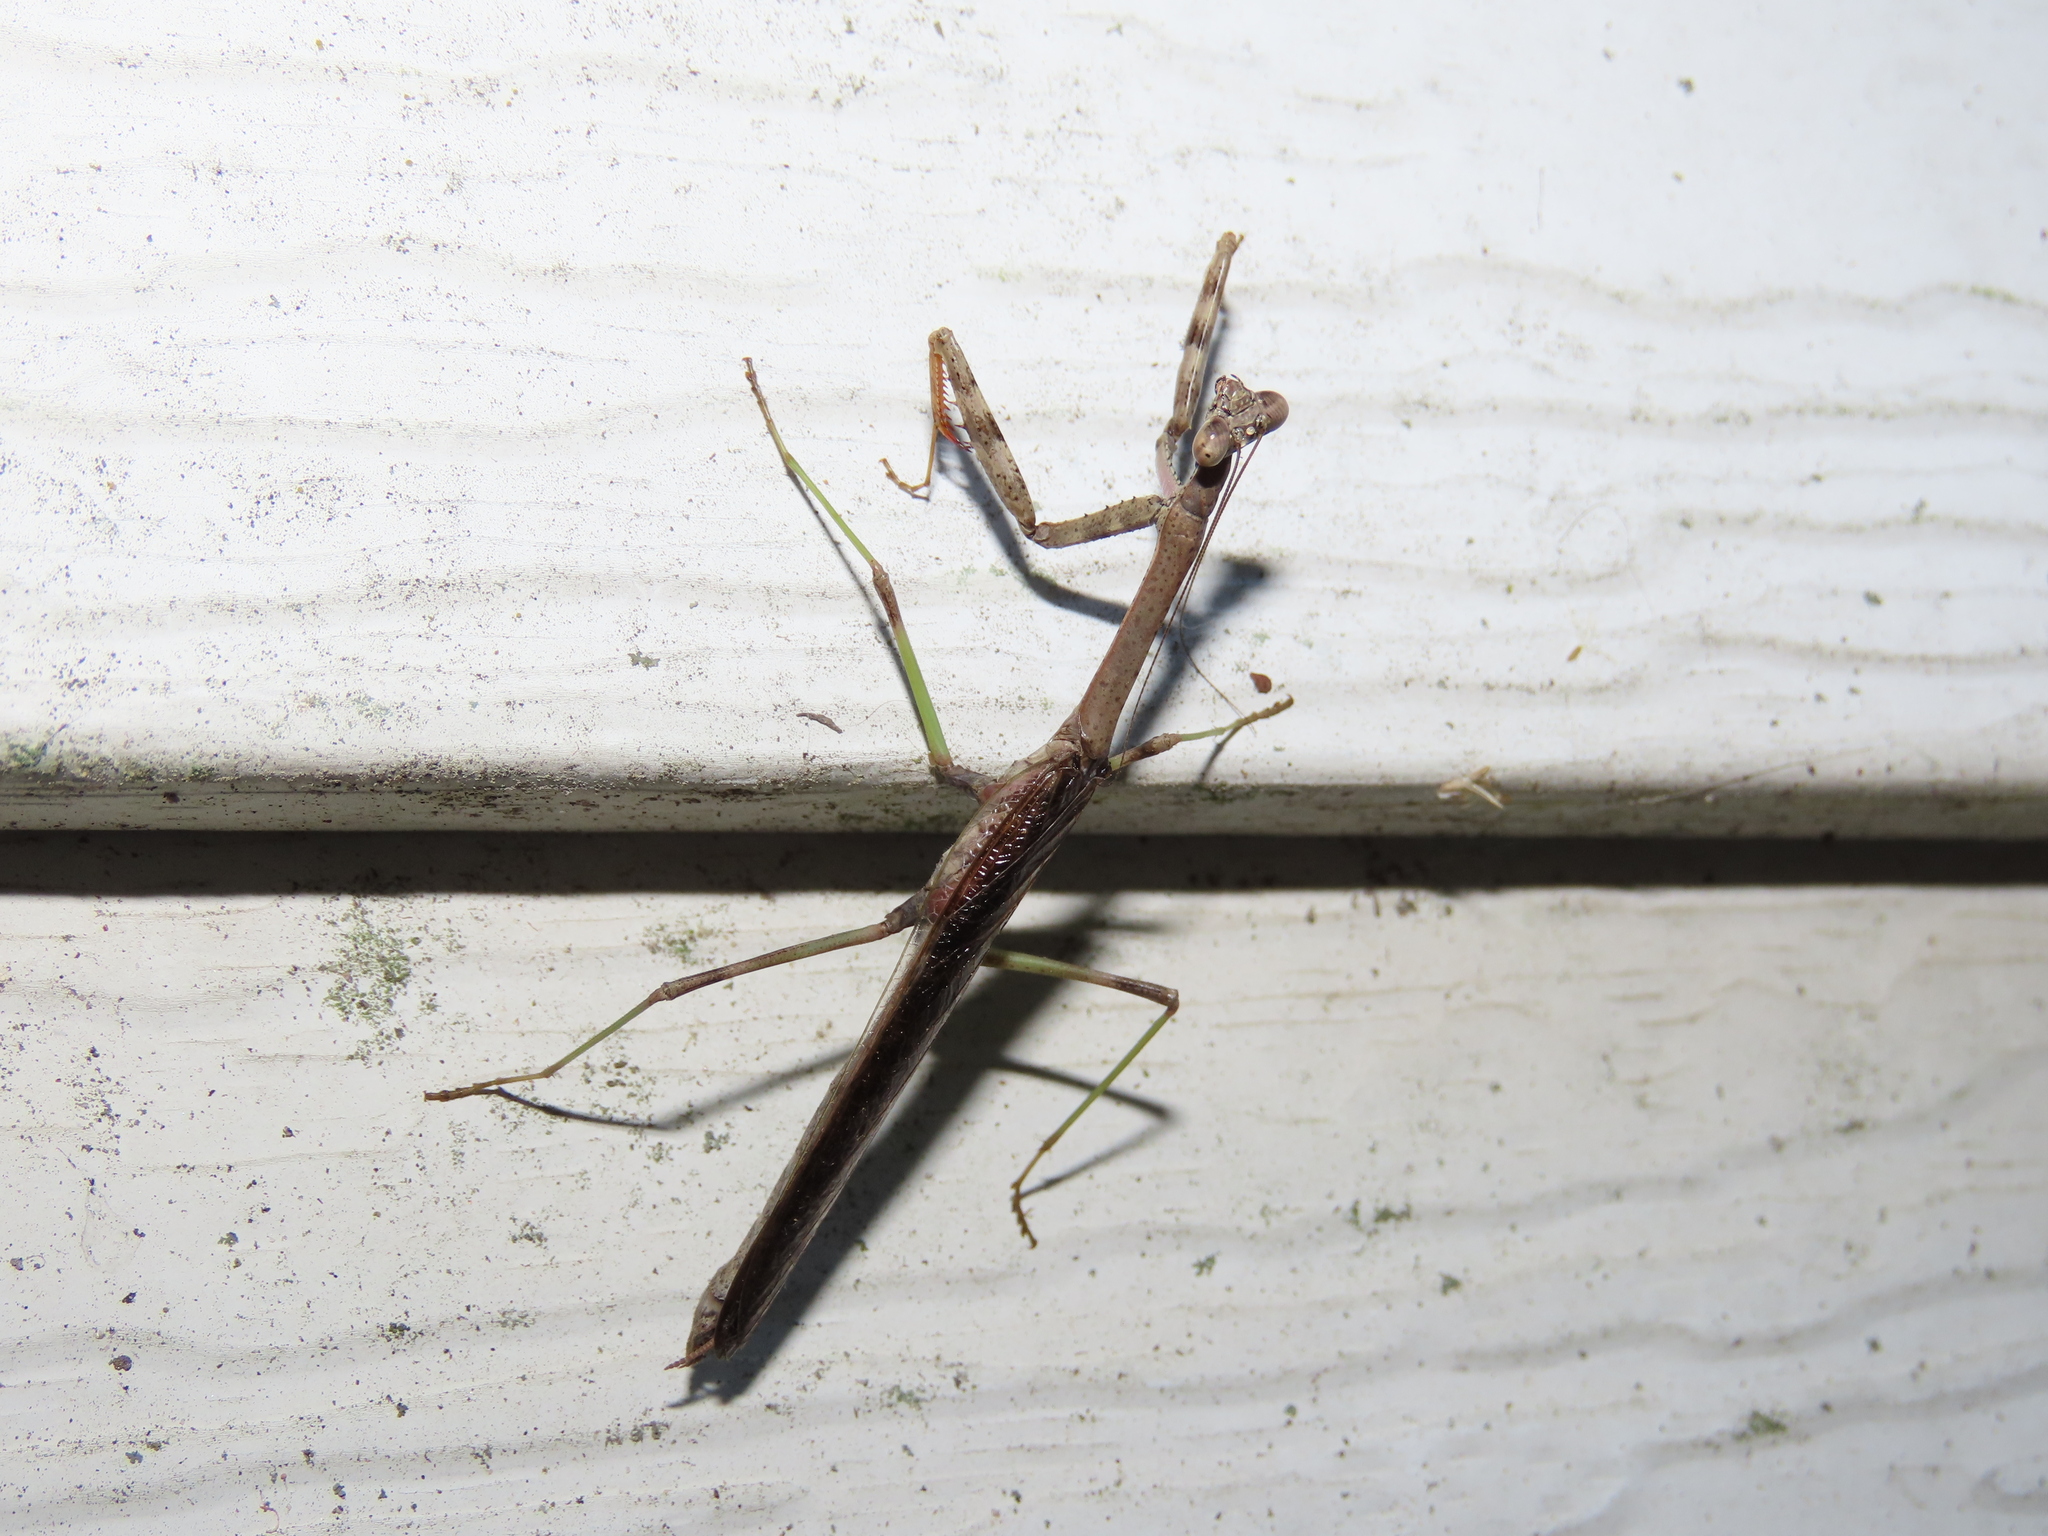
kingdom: Animalia
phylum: Arthropoda
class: Insecta
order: Mantodea
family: Mantidae
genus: Stagmomantis
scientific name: Stagmomantis carolina
